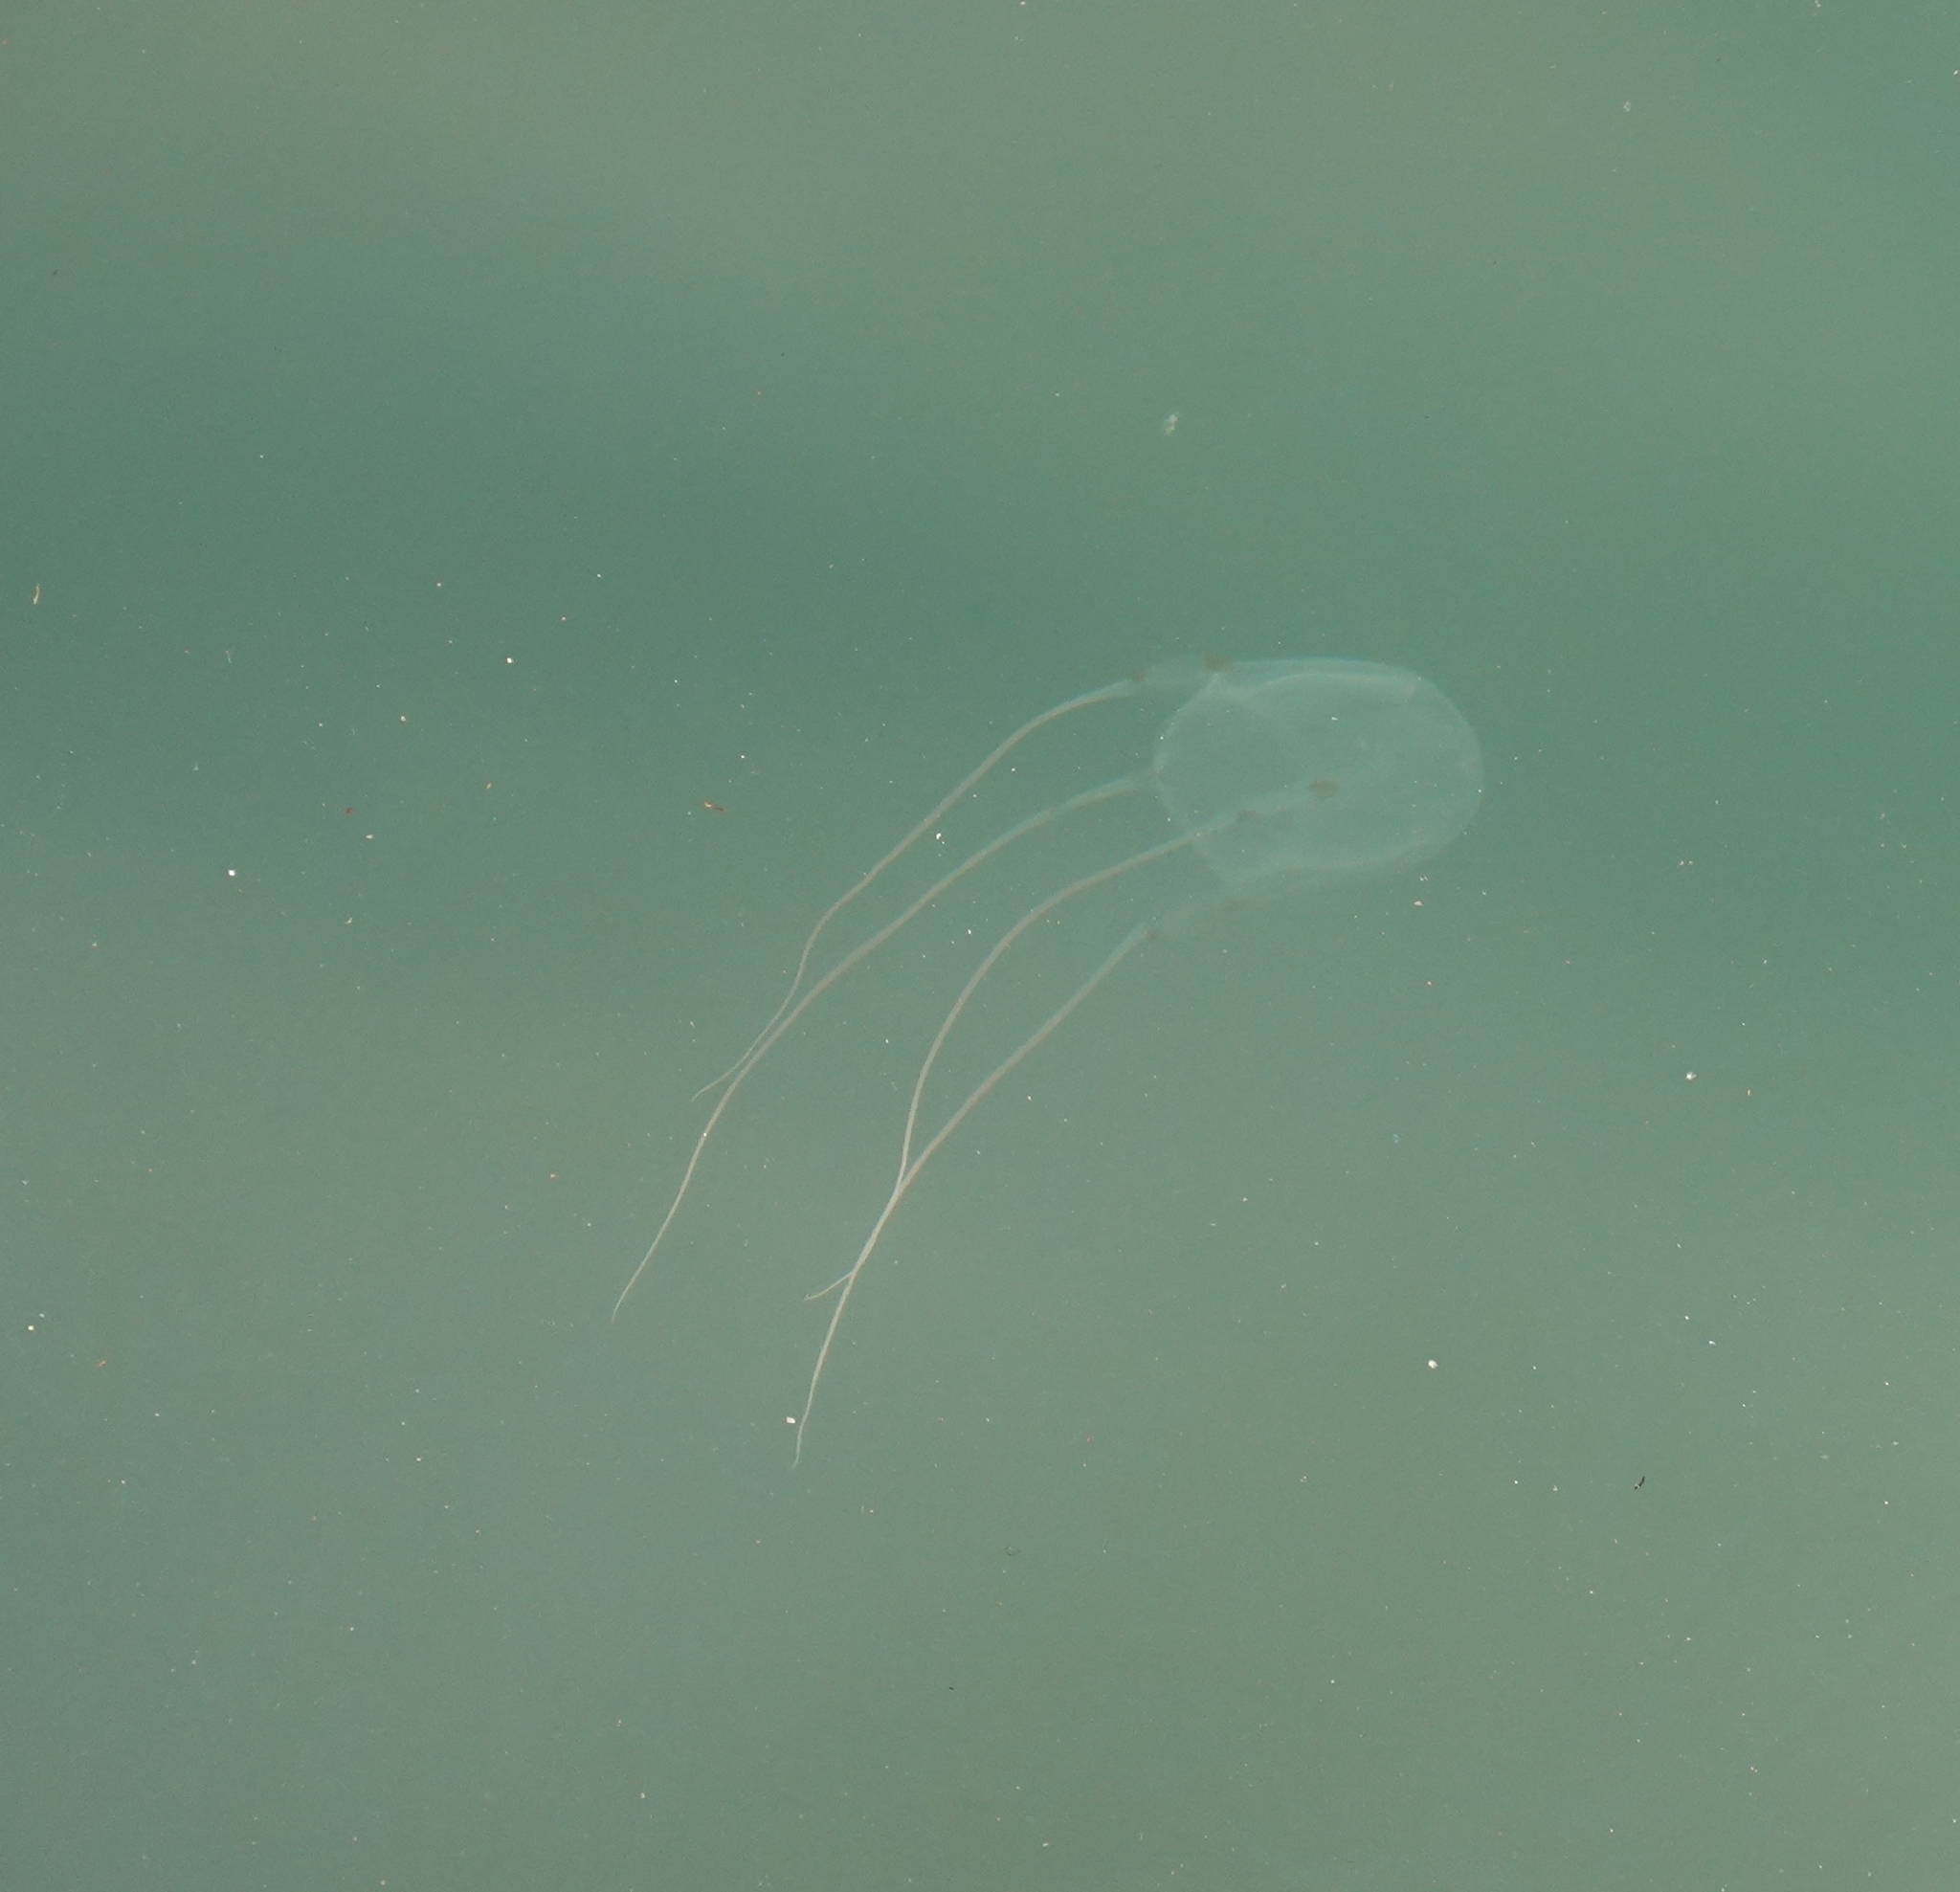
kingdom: Animalia
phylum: Cnidaria
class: Cubozoa
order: Carybdeida
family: Carybdeidae
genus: Carybdea
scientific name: Carybdea murrayana
